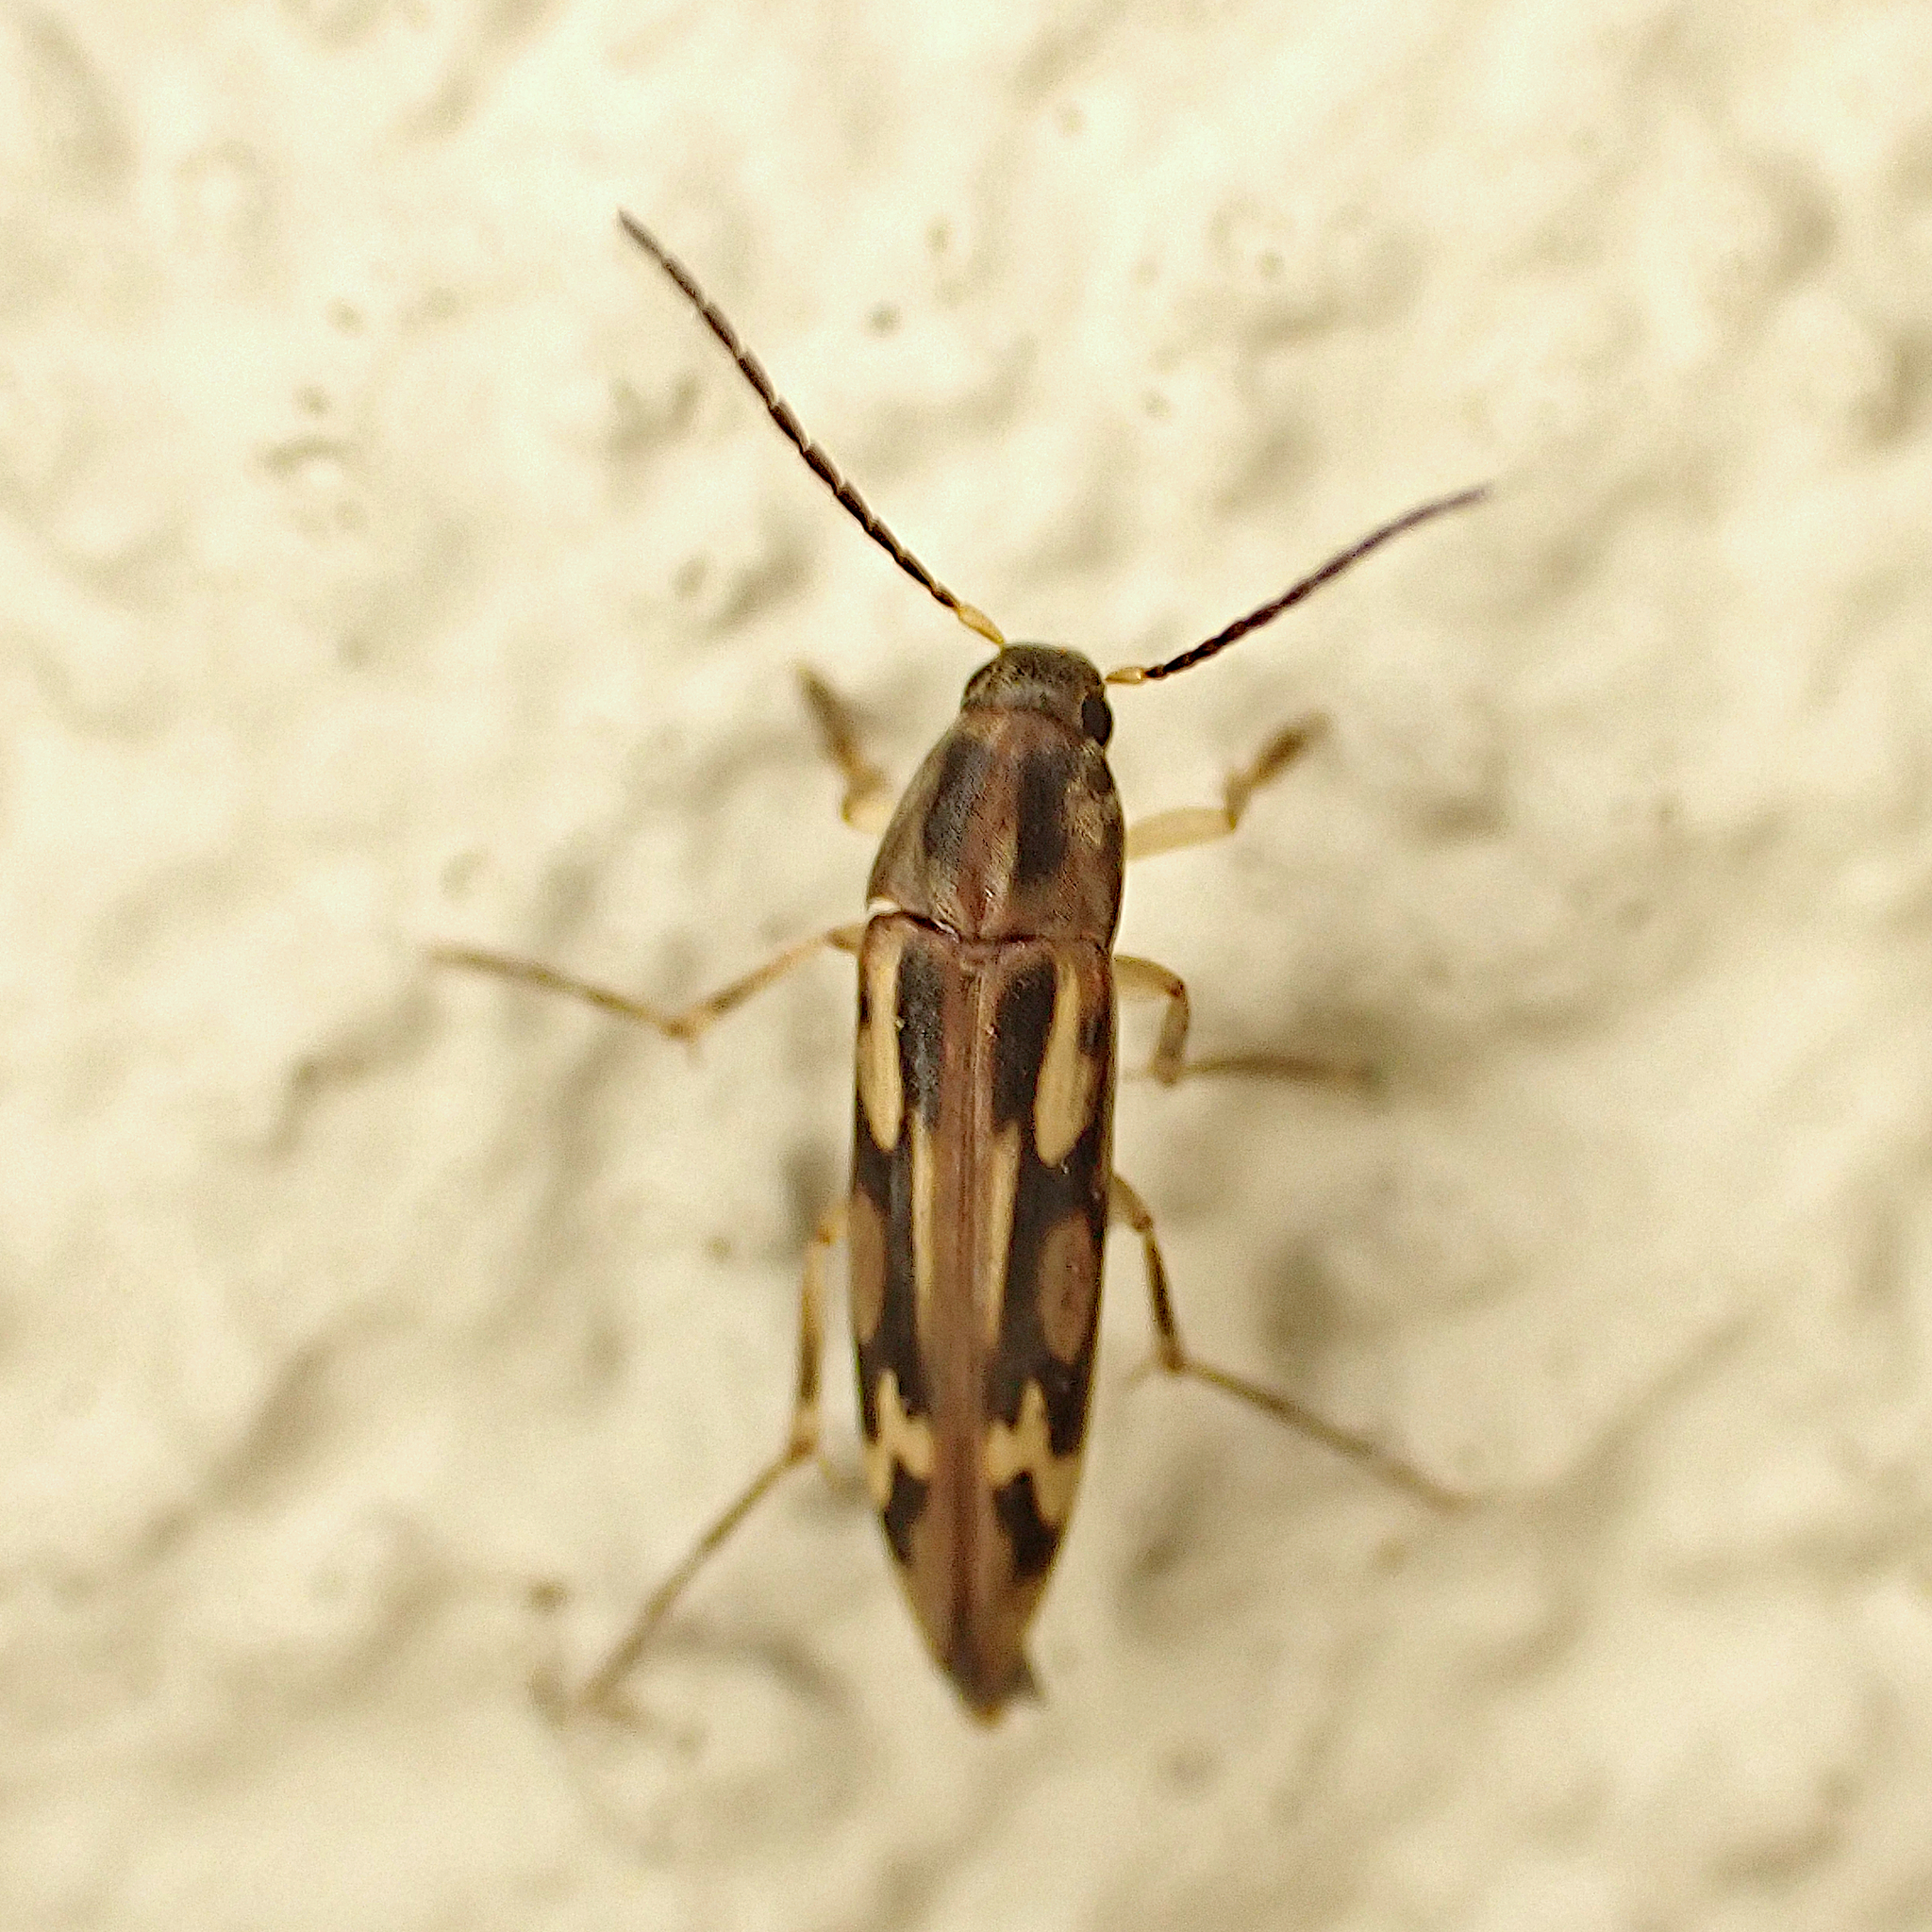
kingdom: Animalia
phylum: Arthropoda
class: Insecta
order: Neuroptera
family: Mesochrysopidae
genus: Allopterus
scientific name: Allopterus
